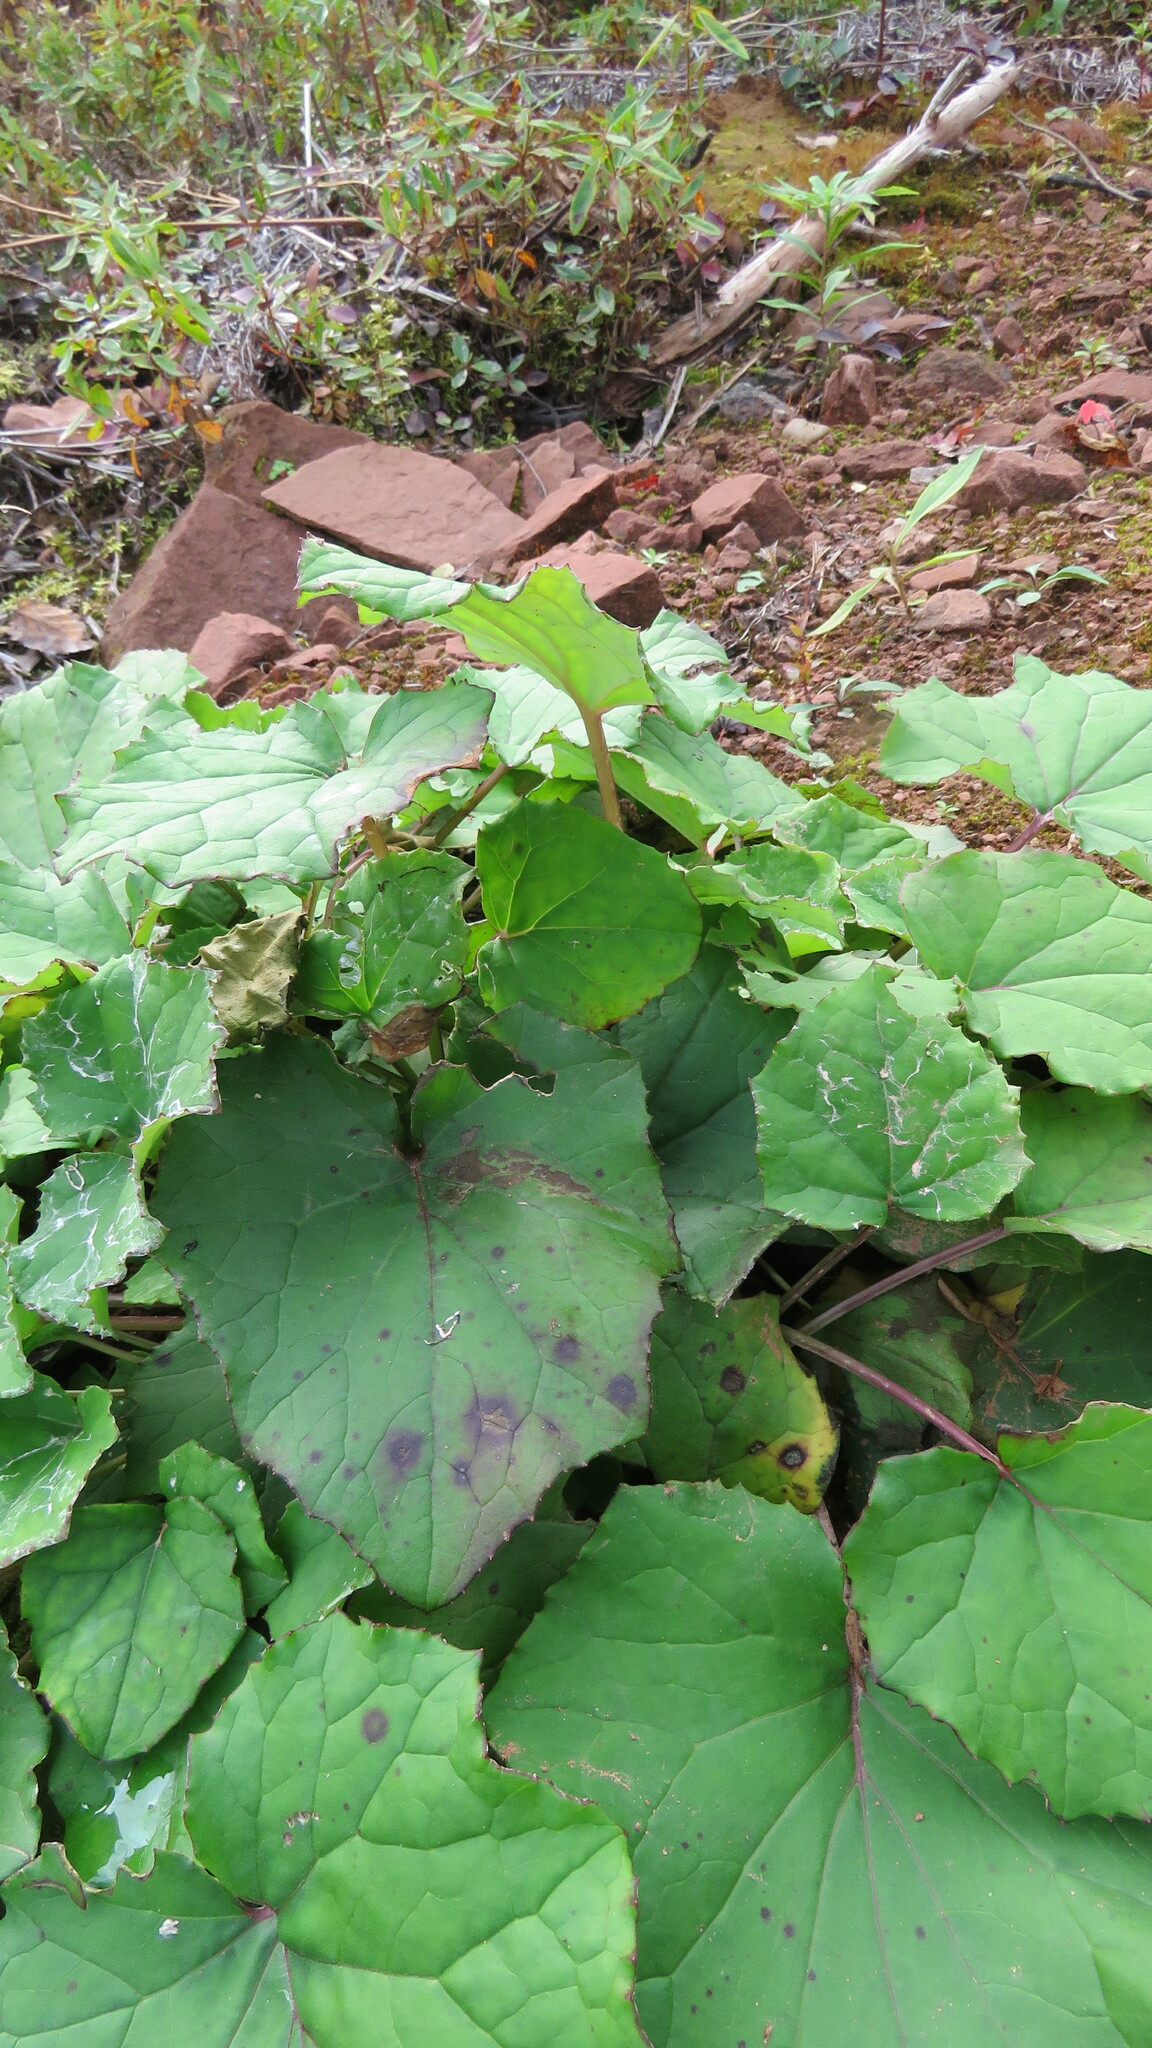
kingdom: Plantae
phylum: Tracheophyta
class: Magnoliopsida
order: Asterales
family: Asteraceae
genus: Tussilago
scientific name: Tussilago farfara
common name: Coltsfoot
